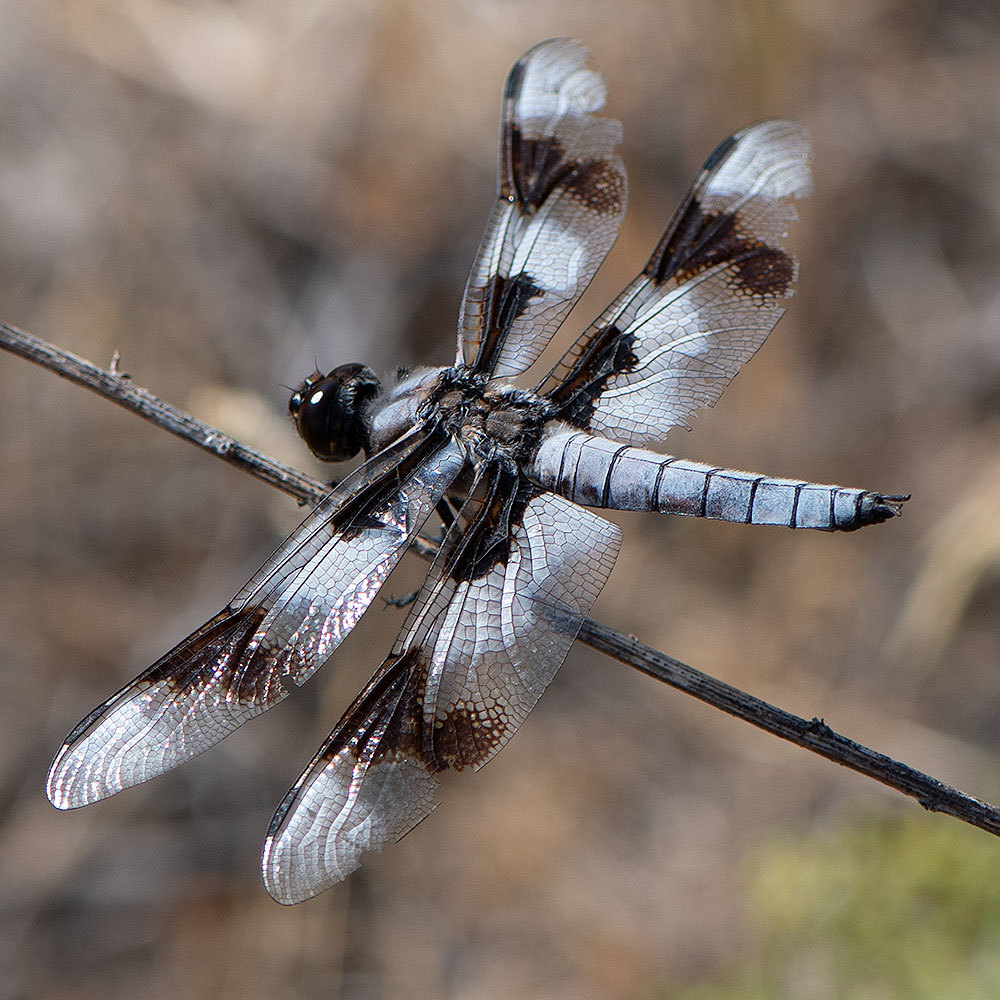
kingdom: Animalia
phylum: Arthropoda
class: Insecta
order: Odonata
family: Libellulidae
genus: Libellula
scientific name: Libellula forensis
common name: Eight-spotted skimmer
